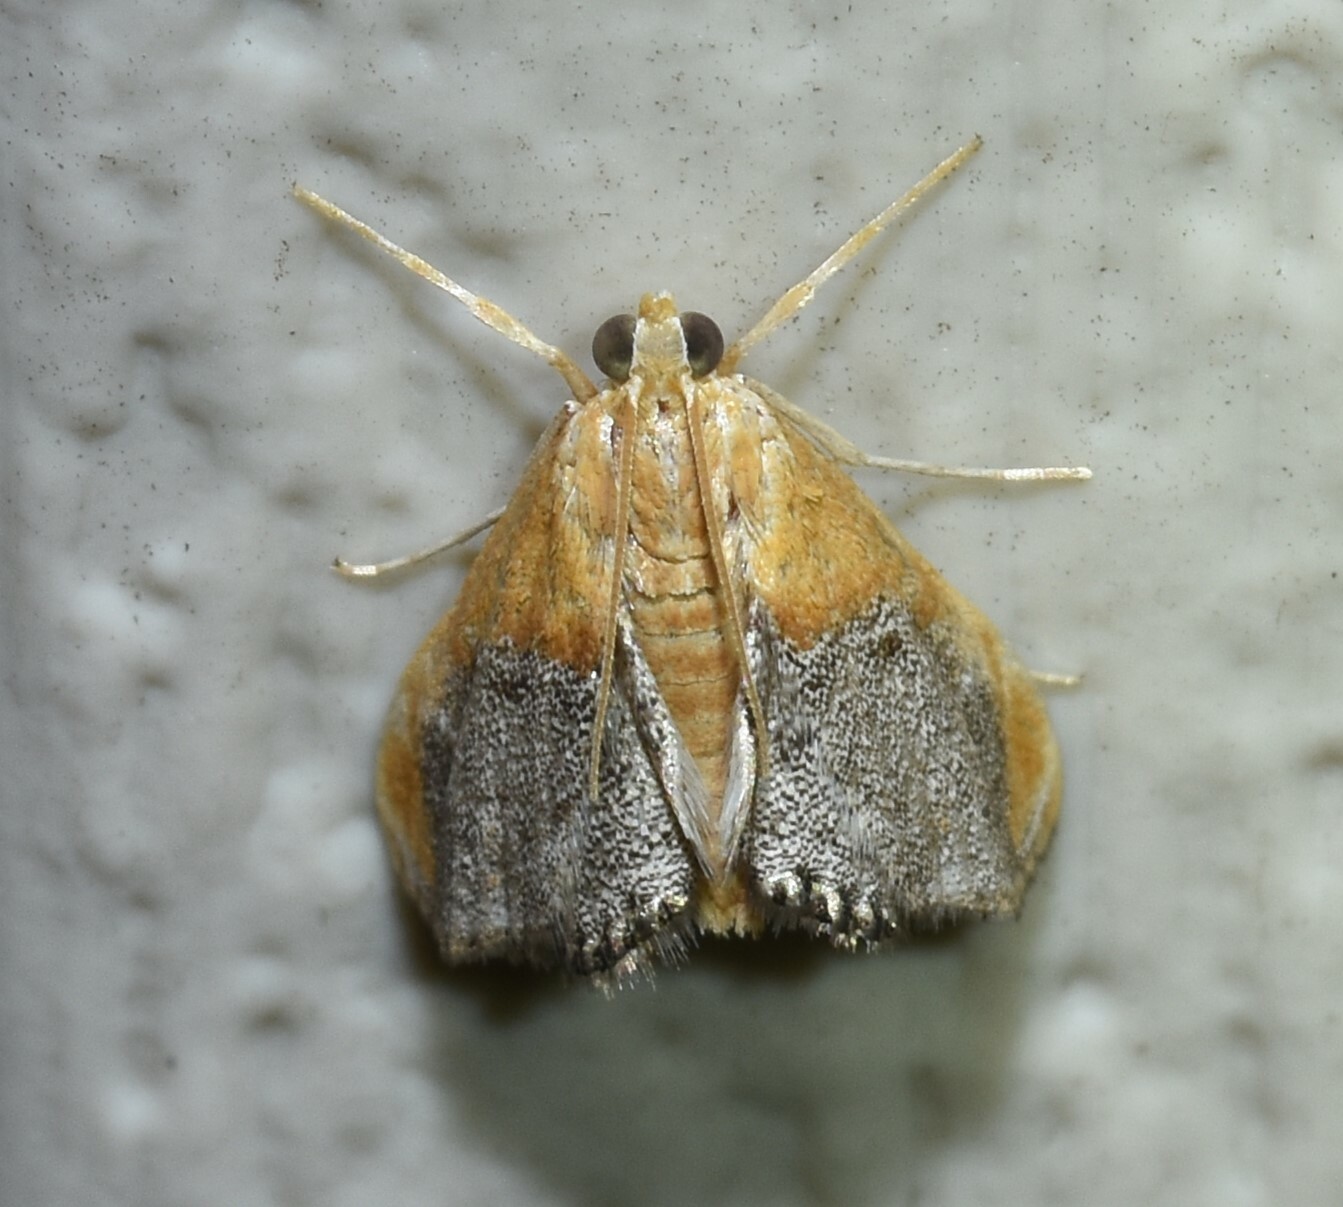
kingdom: Animalia
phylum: Arthropoda
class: Insecta
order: Lepidoptera
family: Crambidae
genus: Chalcoela
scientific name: Chalcoela iphitalis
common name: Sooty-winged chalcoela moth
